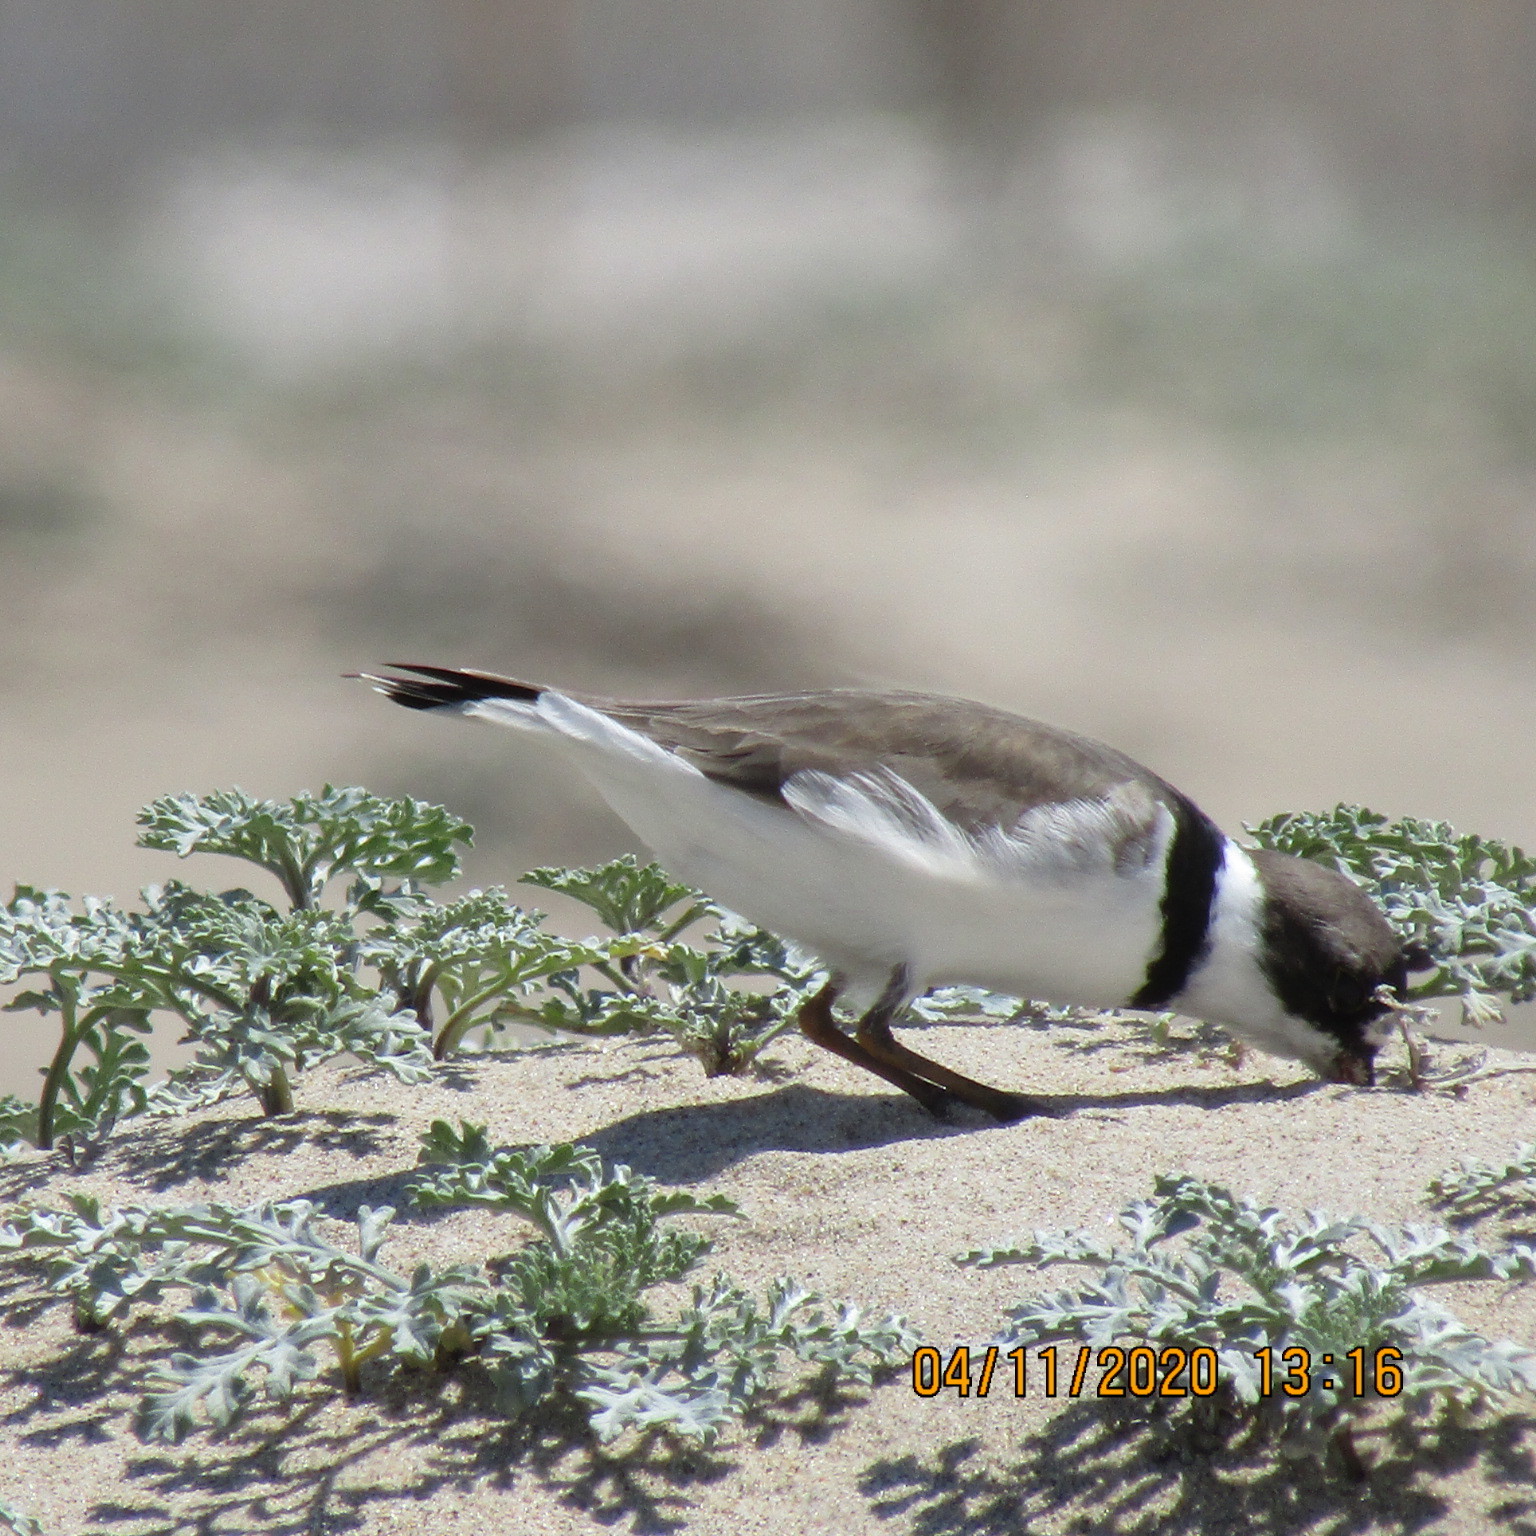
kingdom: Animalia
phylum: Chordata
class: Aves
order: Charadriiformes
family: Charadriidae
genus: Charadrius
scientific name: Charadrius semipalmatus
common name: Semipalmated plover
